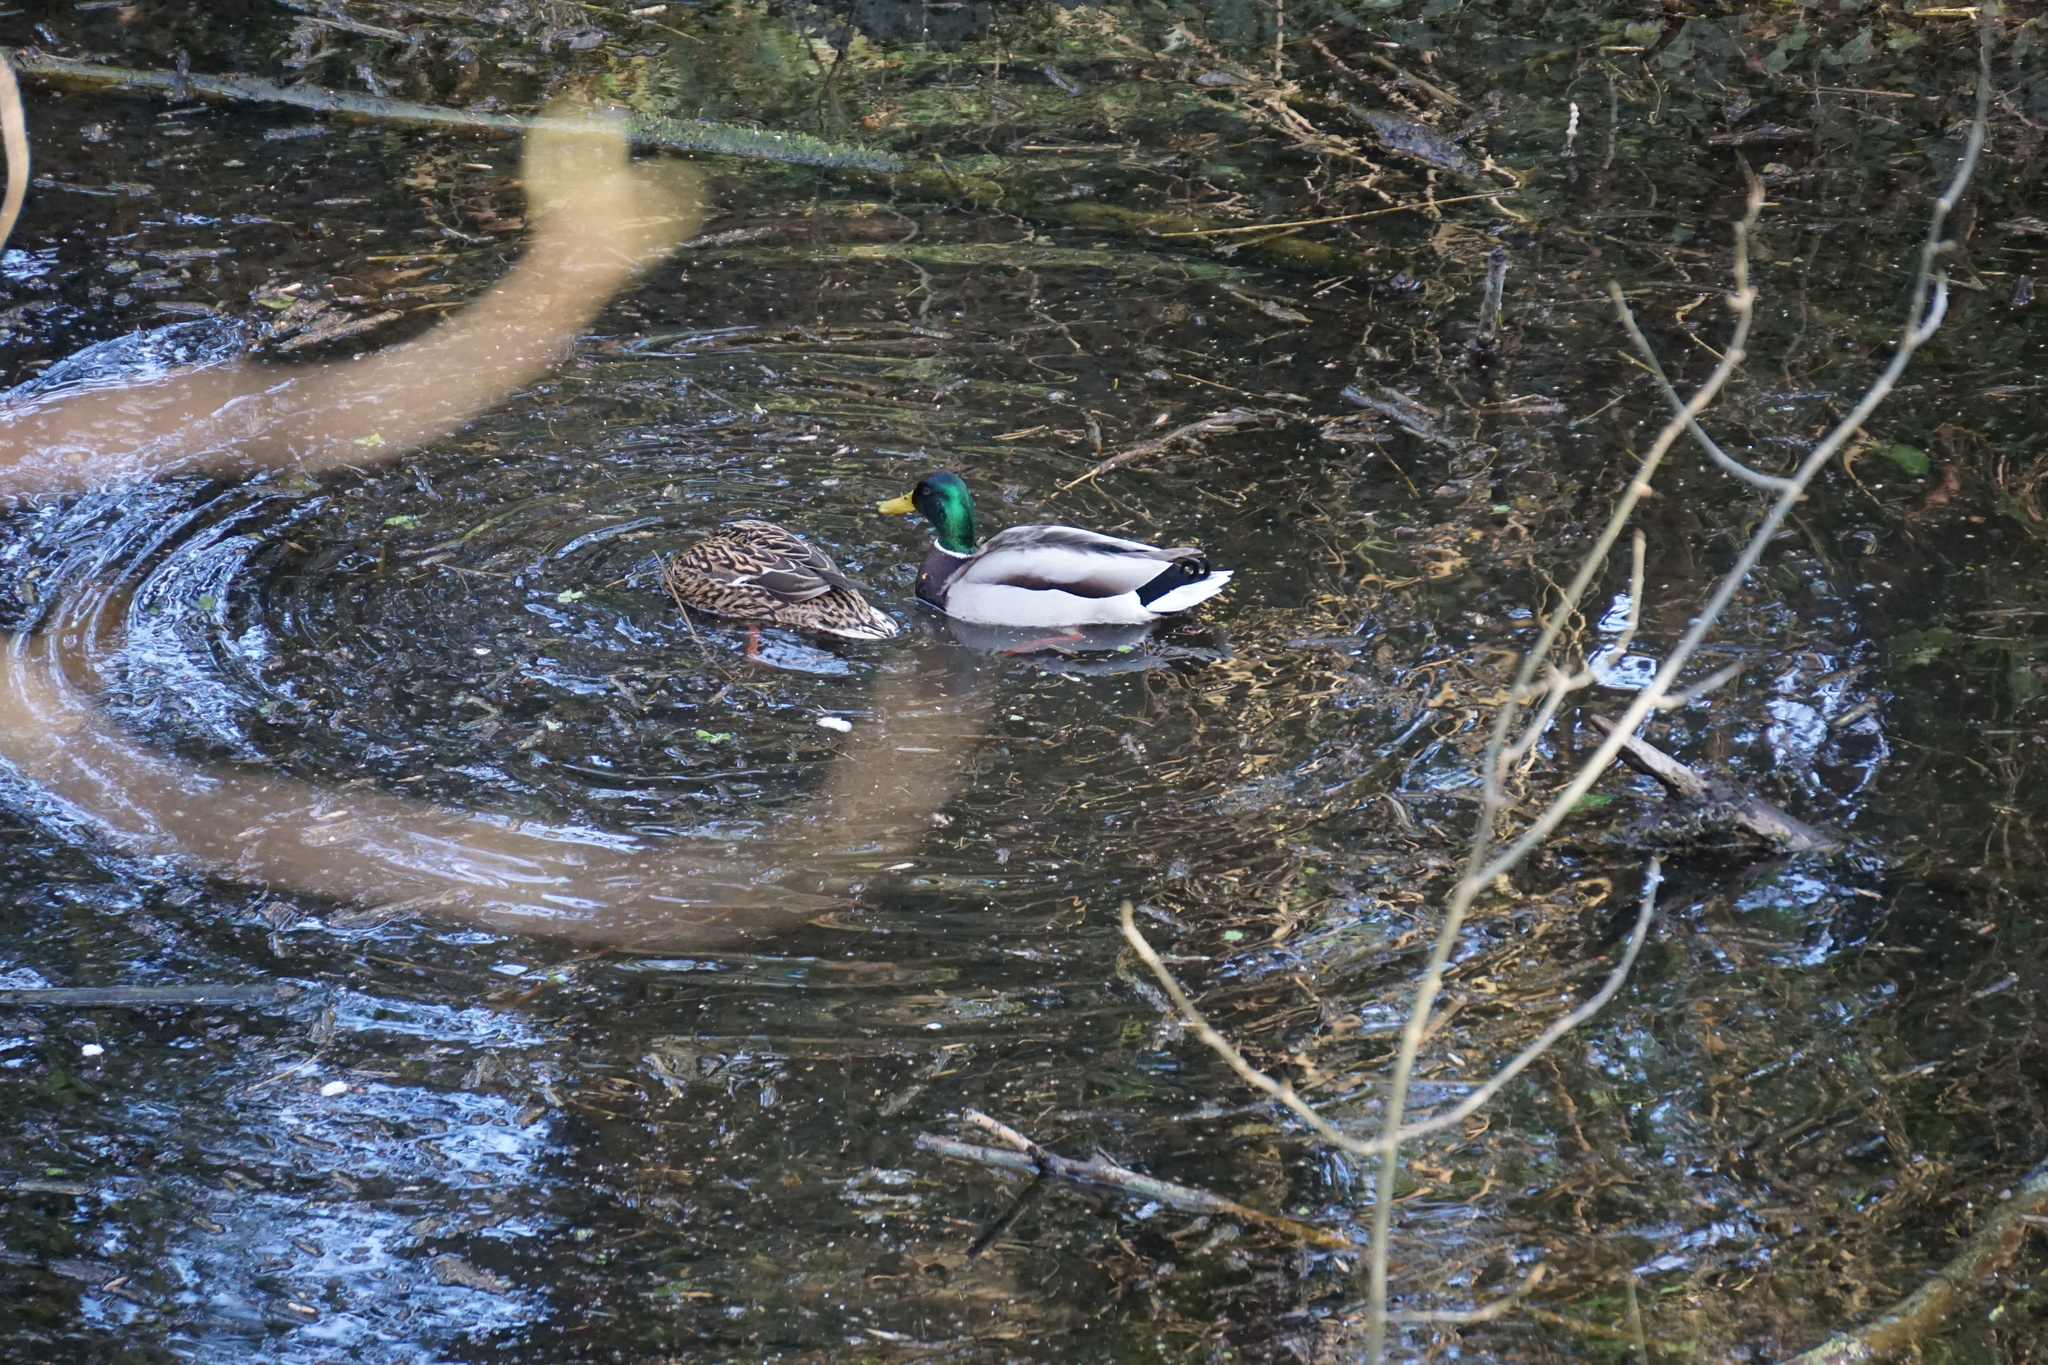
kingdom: Animalia
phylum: Chordata
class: Aves
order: Anseriformes
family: Anatidae
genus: Anas
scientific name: Anas platyrhynchos
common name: Mallard
